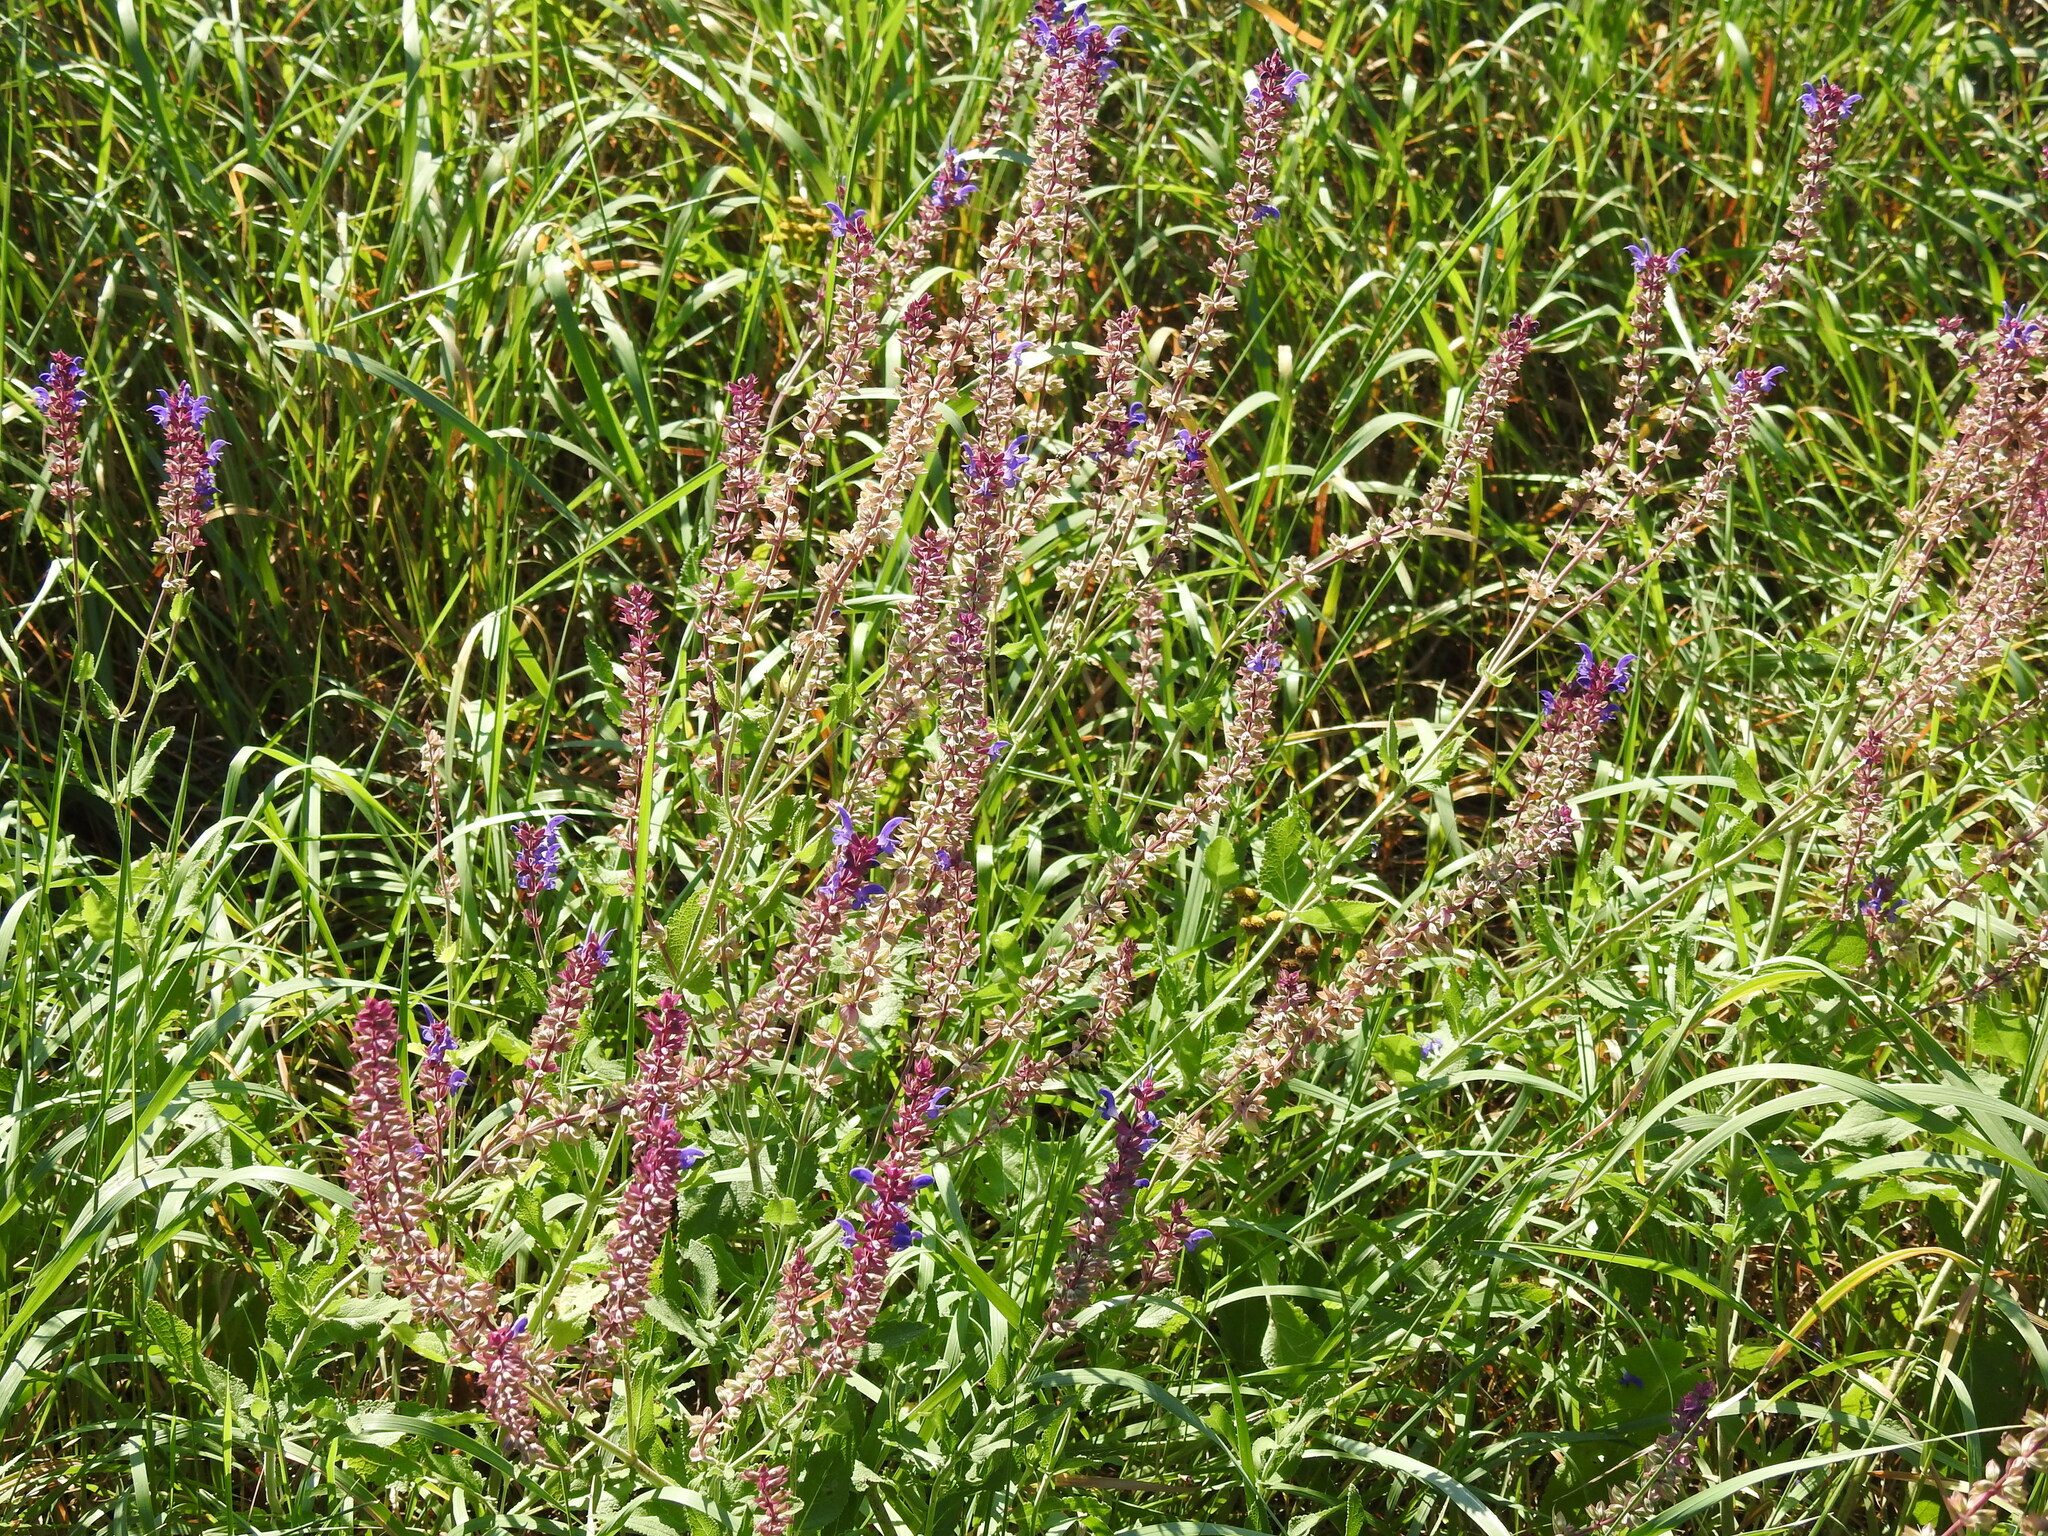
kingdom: Plantae
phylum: Tracheophyta
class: Magnoliopsida
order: Lamiales
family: Lamiaceae
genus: Salvia
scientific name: Salvia nemorosa
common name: Balkan clary
